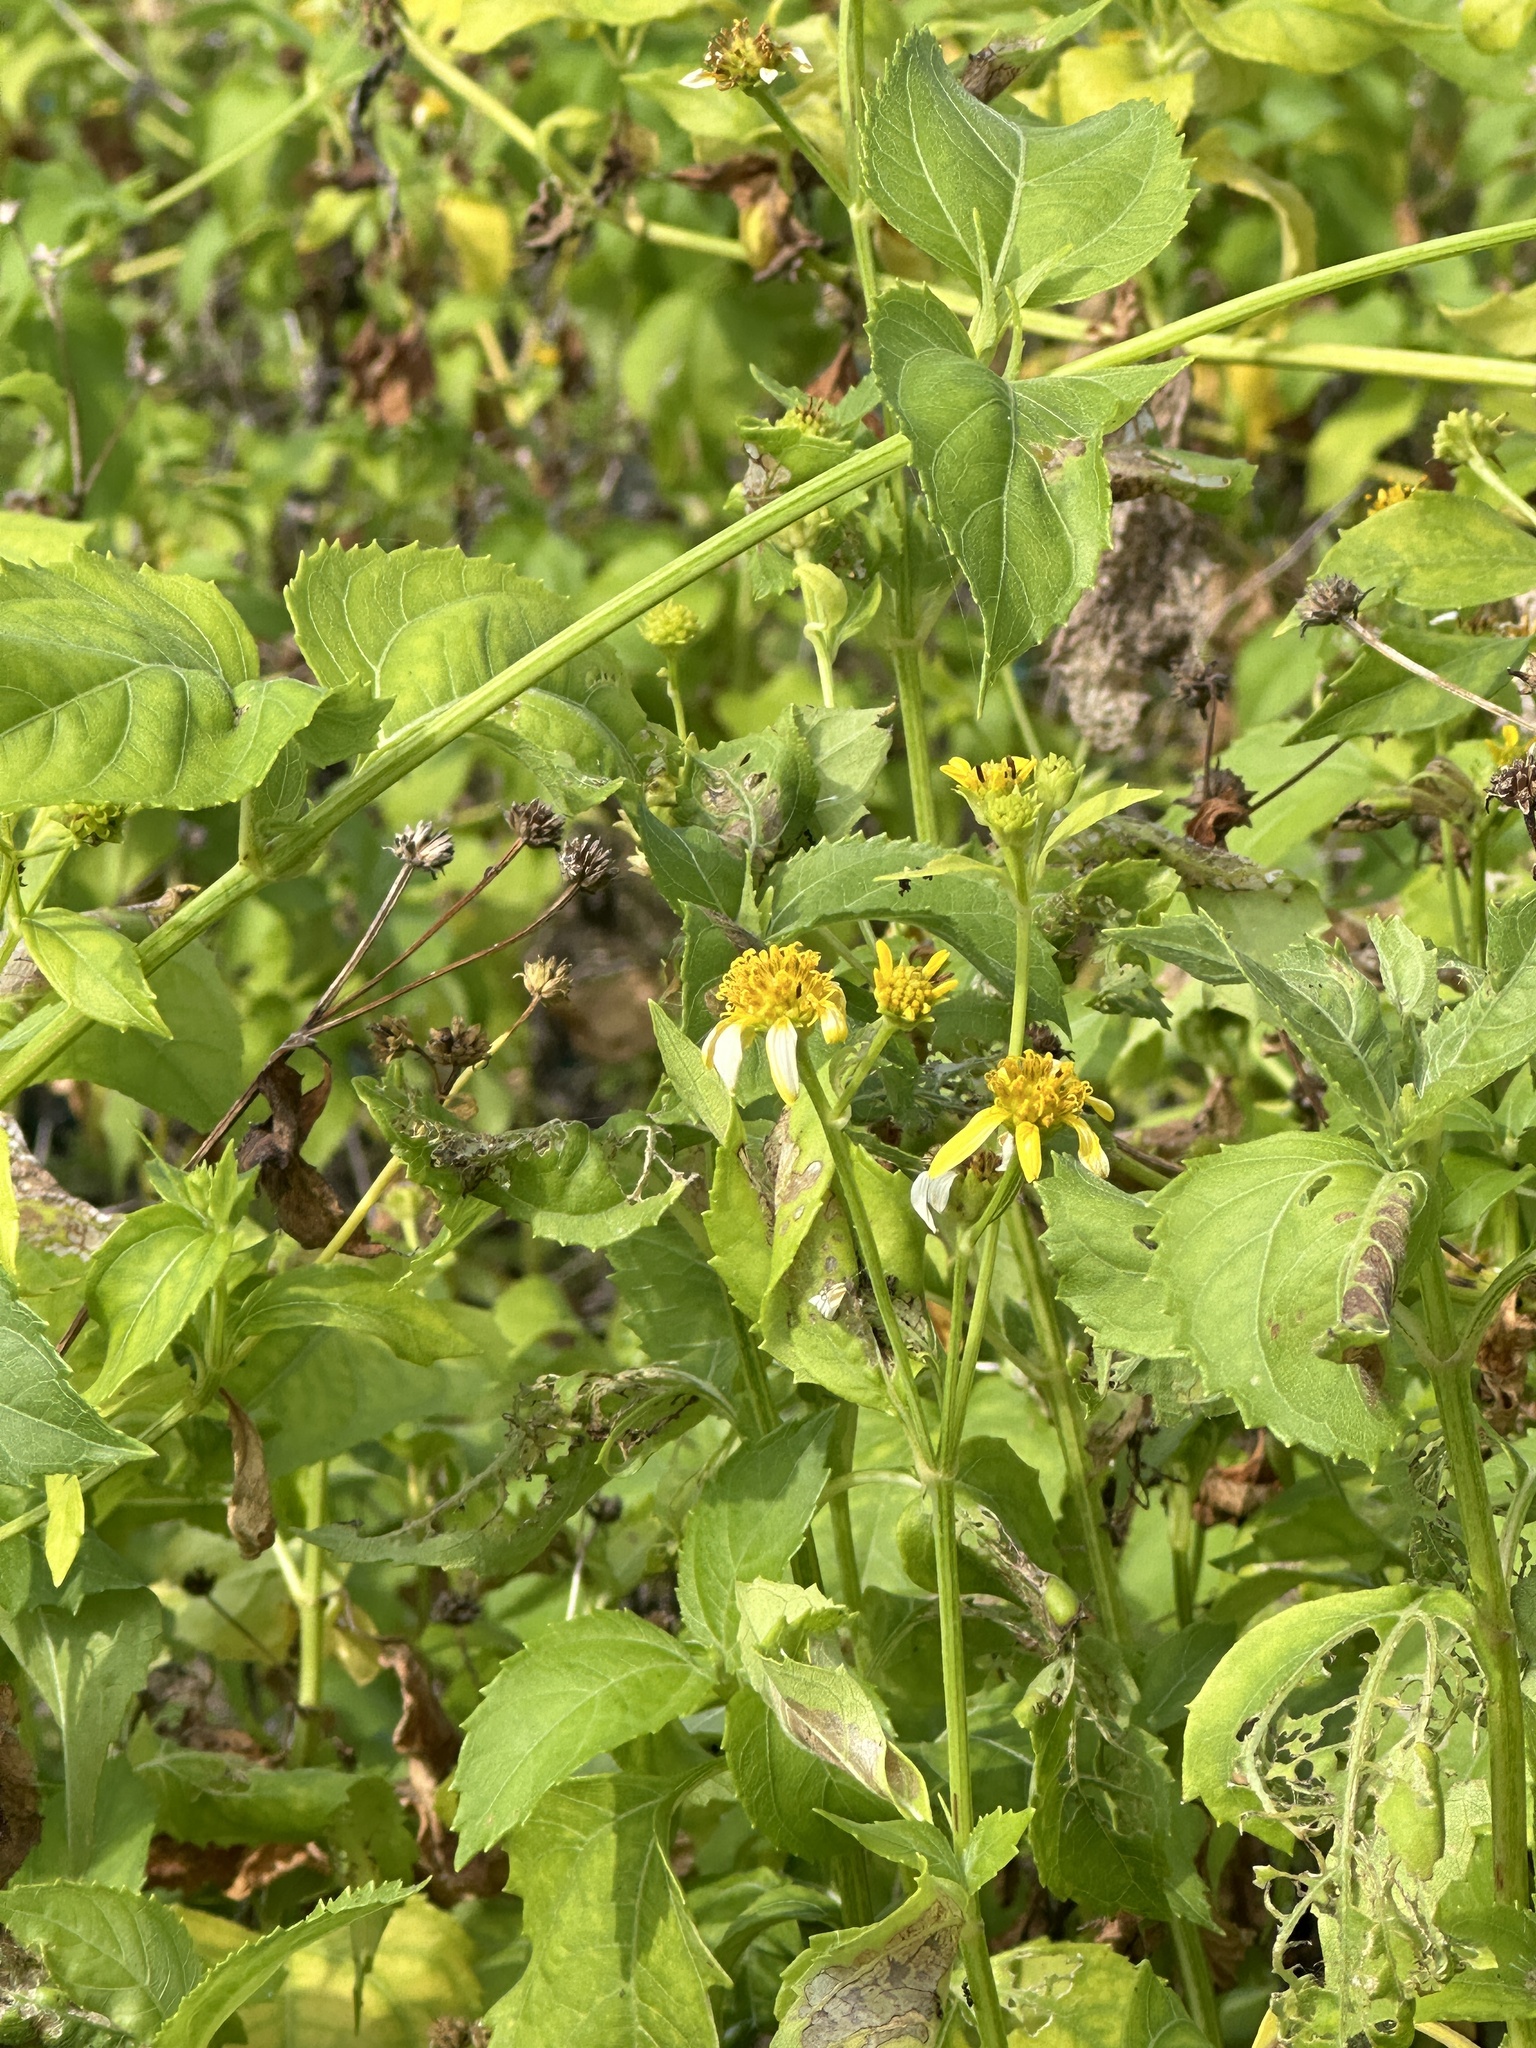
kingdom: Plantae
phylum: Tracheophyta
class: Magnoliopsida
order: Asterales
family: Asteraceae
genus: Wollastonia
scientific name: Wollastonia biflora
